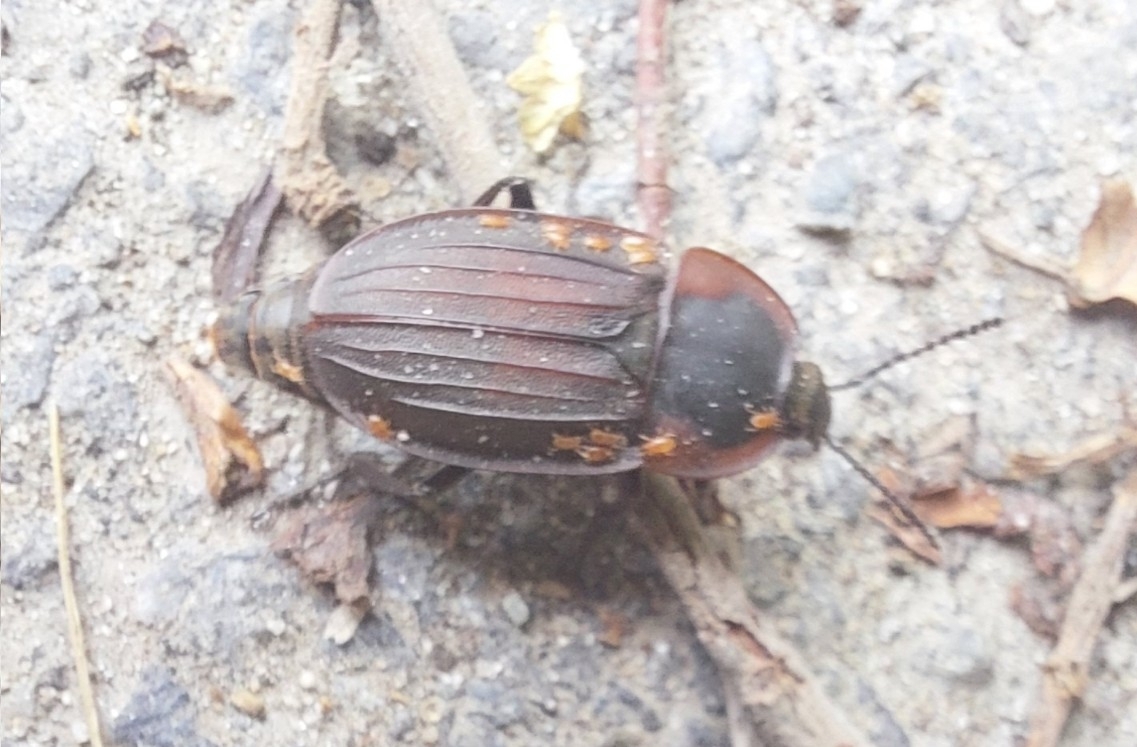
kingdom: Animalia
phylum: Arthropoda
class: Insecta
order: Coleoptera
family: Staphylinidae
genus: Silpha
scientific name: Silpha carinata
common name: Silphid beetle
